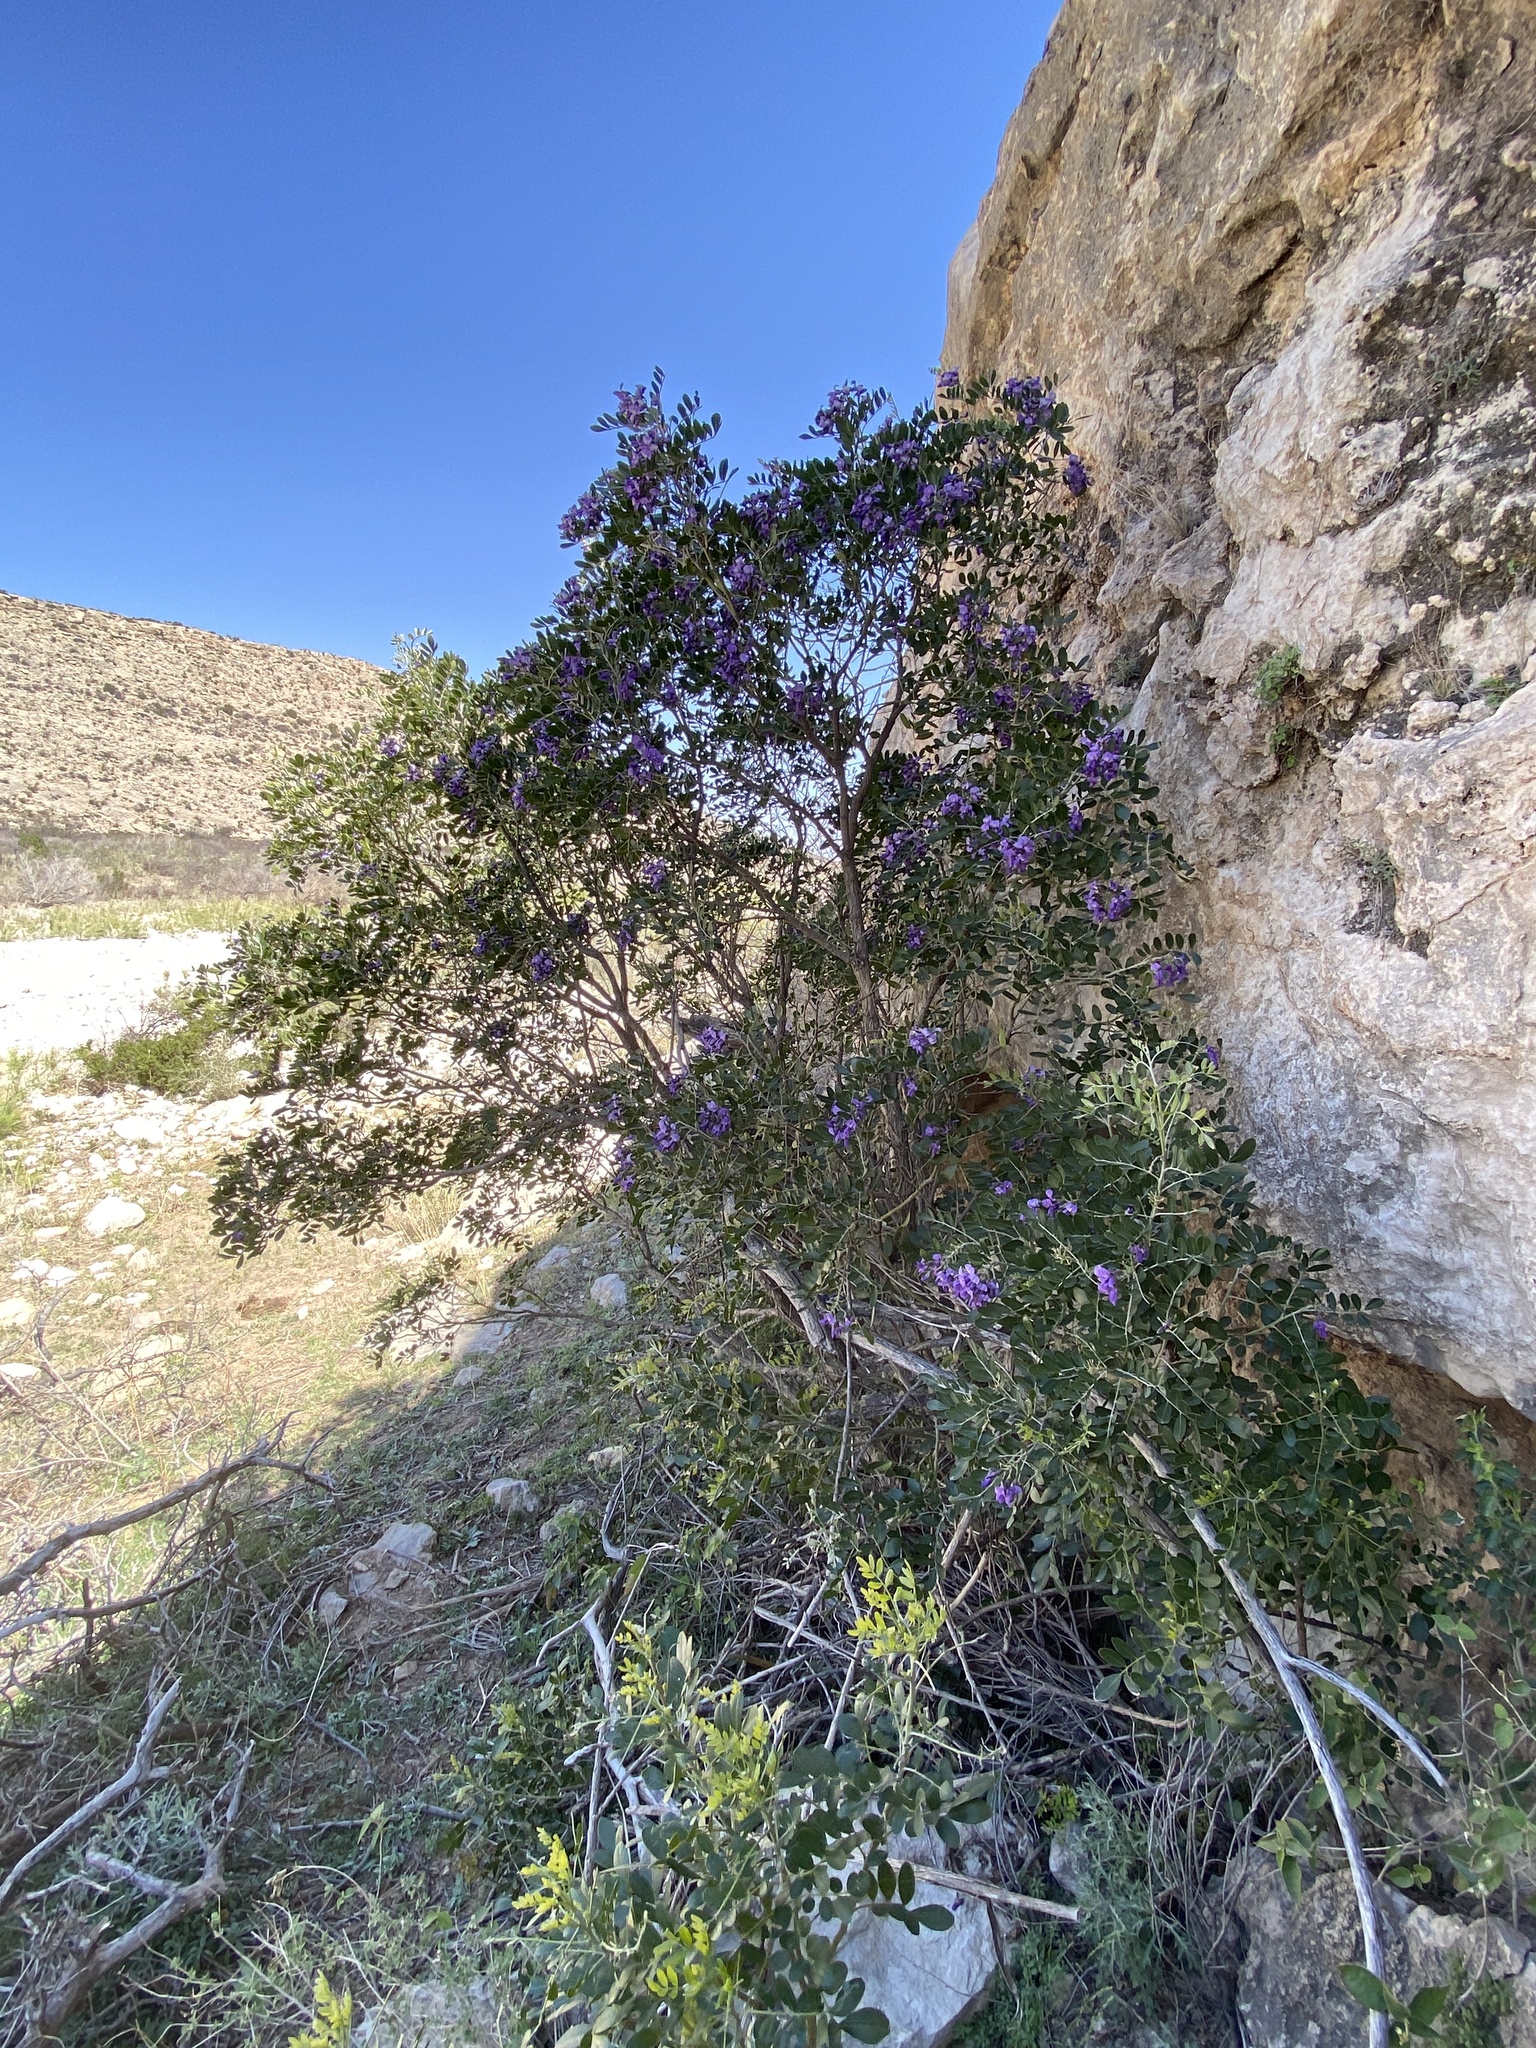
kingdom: Plantae
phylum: Tracheophyta
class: Magnoliopsida
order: Fabales
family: Fabaceae
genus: Dermatophyllum
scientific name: Dermatophyllum secundiflorum
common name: Texas-mountain-laurel
